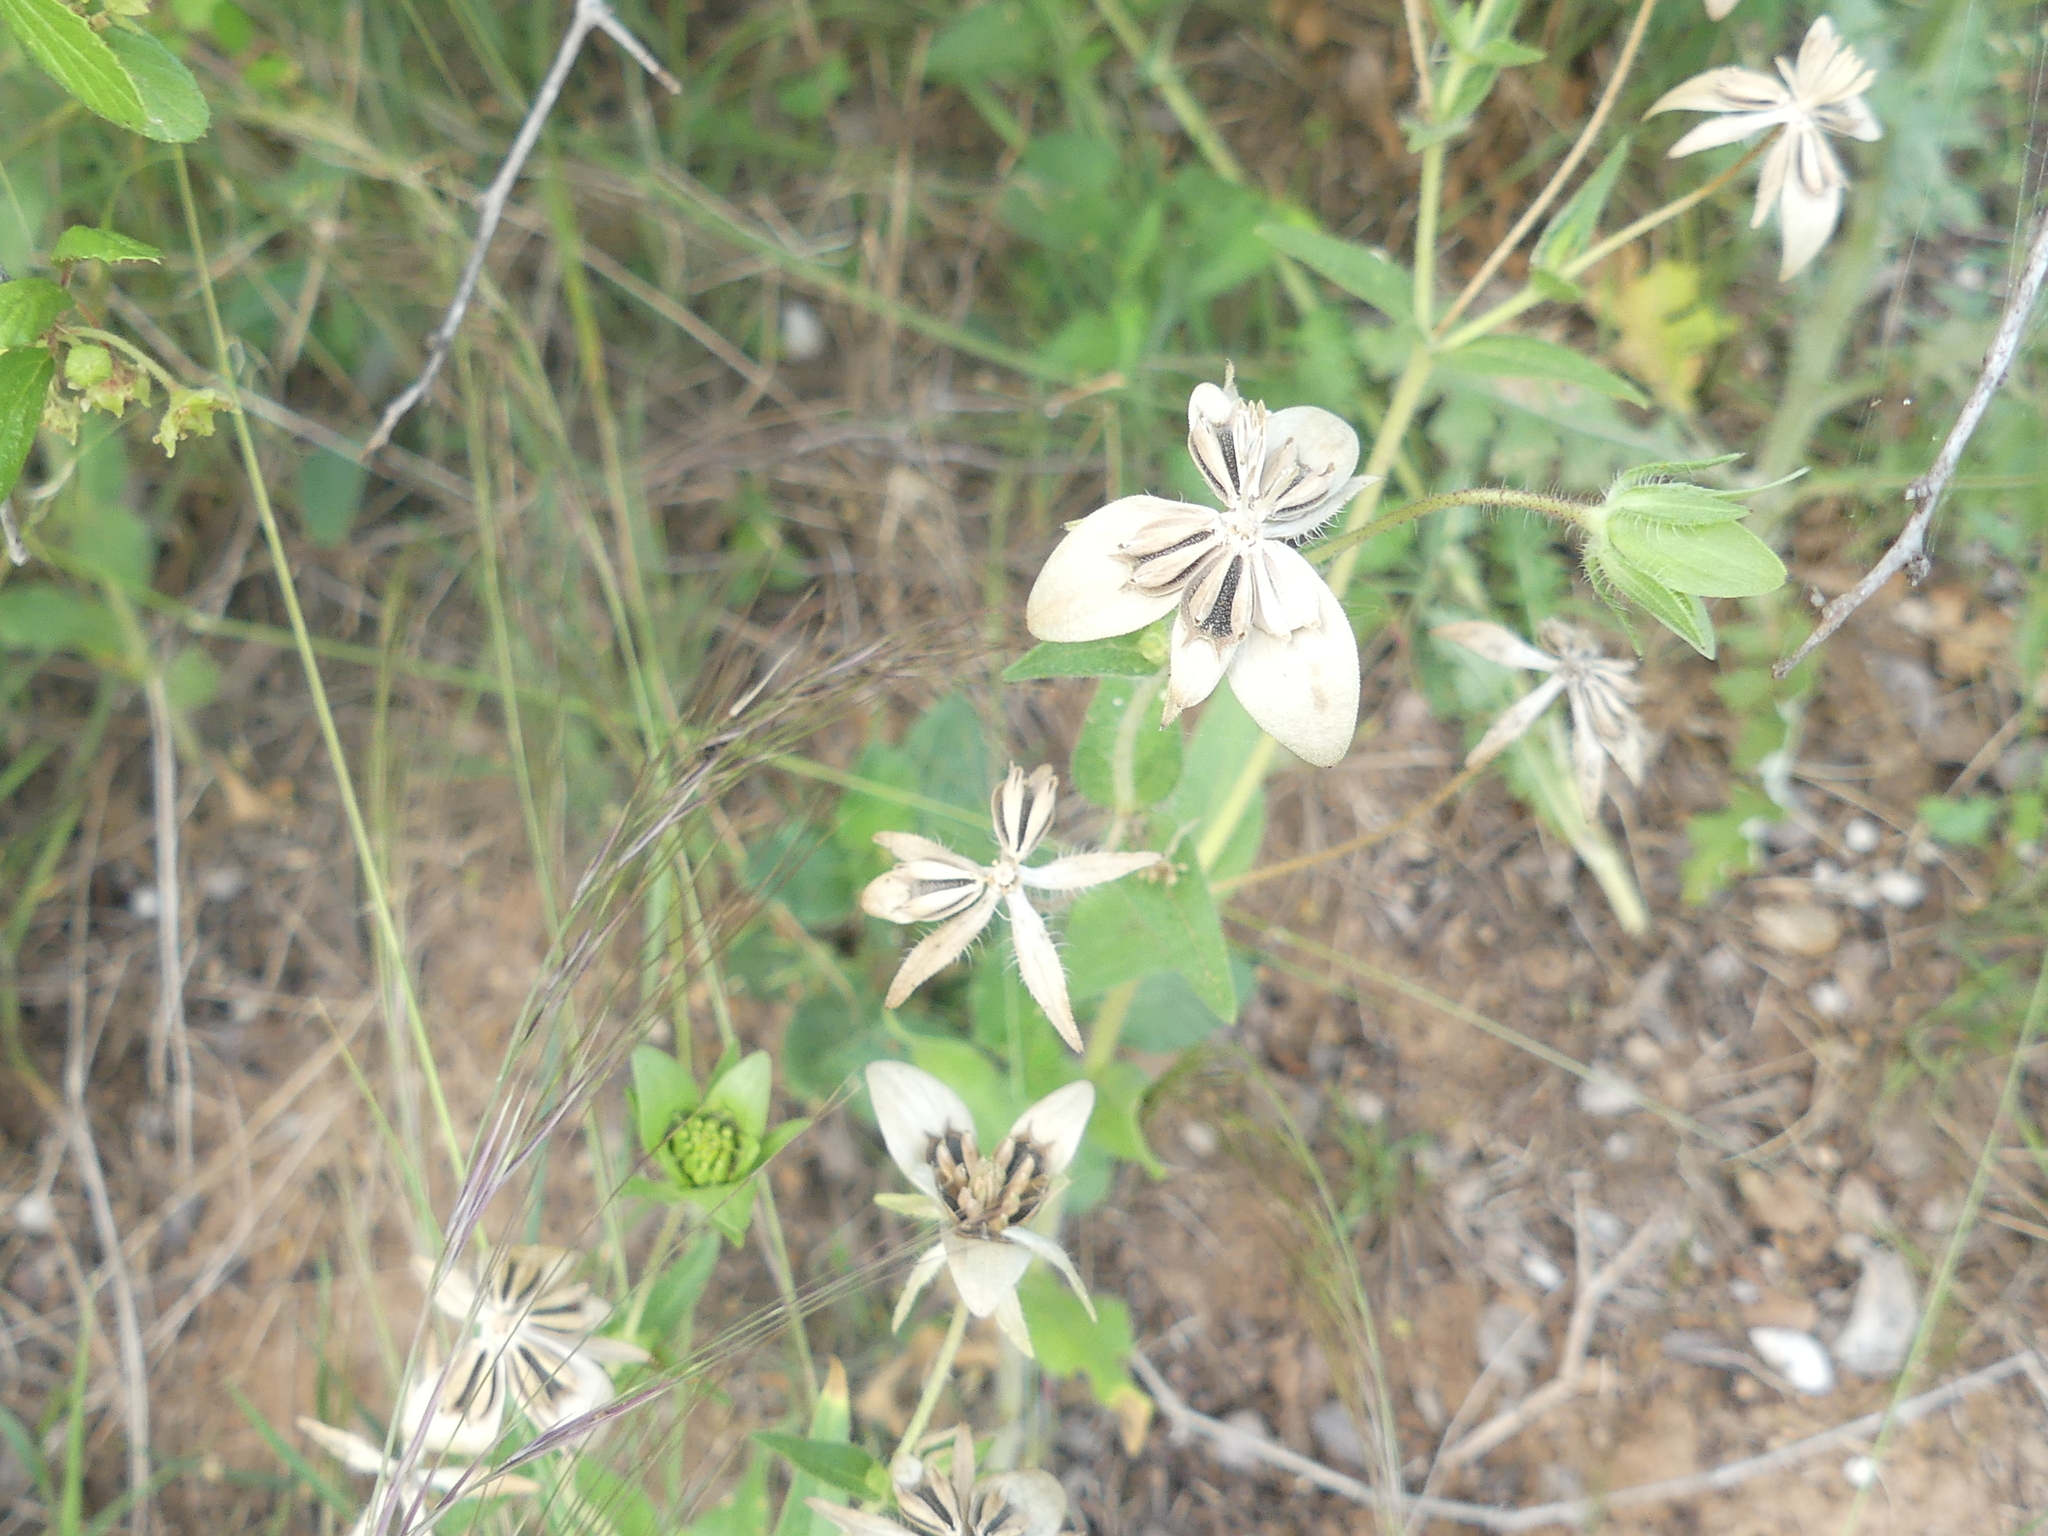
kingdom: Plantae
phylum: Tracheophyta
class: Magnoliopsida
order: Asterales
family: Asteraceae
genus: Lindheimera
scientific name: Lindheimera texana
